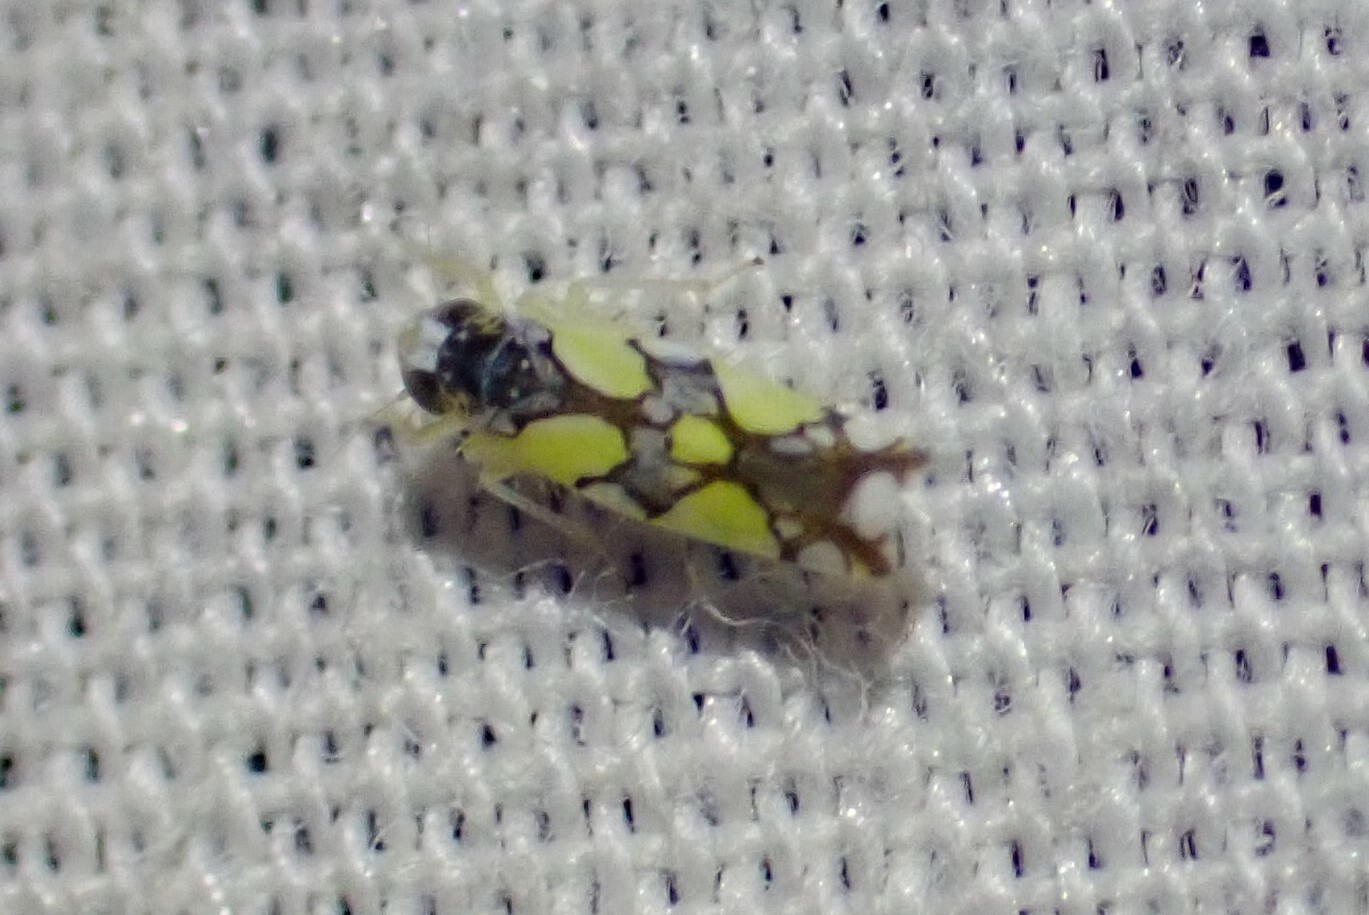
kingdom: Animalia
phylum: Arthropoda
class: Insecta
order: Hemiptera
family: Cicadellidae
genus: Protalebrella
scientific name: Protalebrella brasiliensis
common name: Brasilian leafhopper
